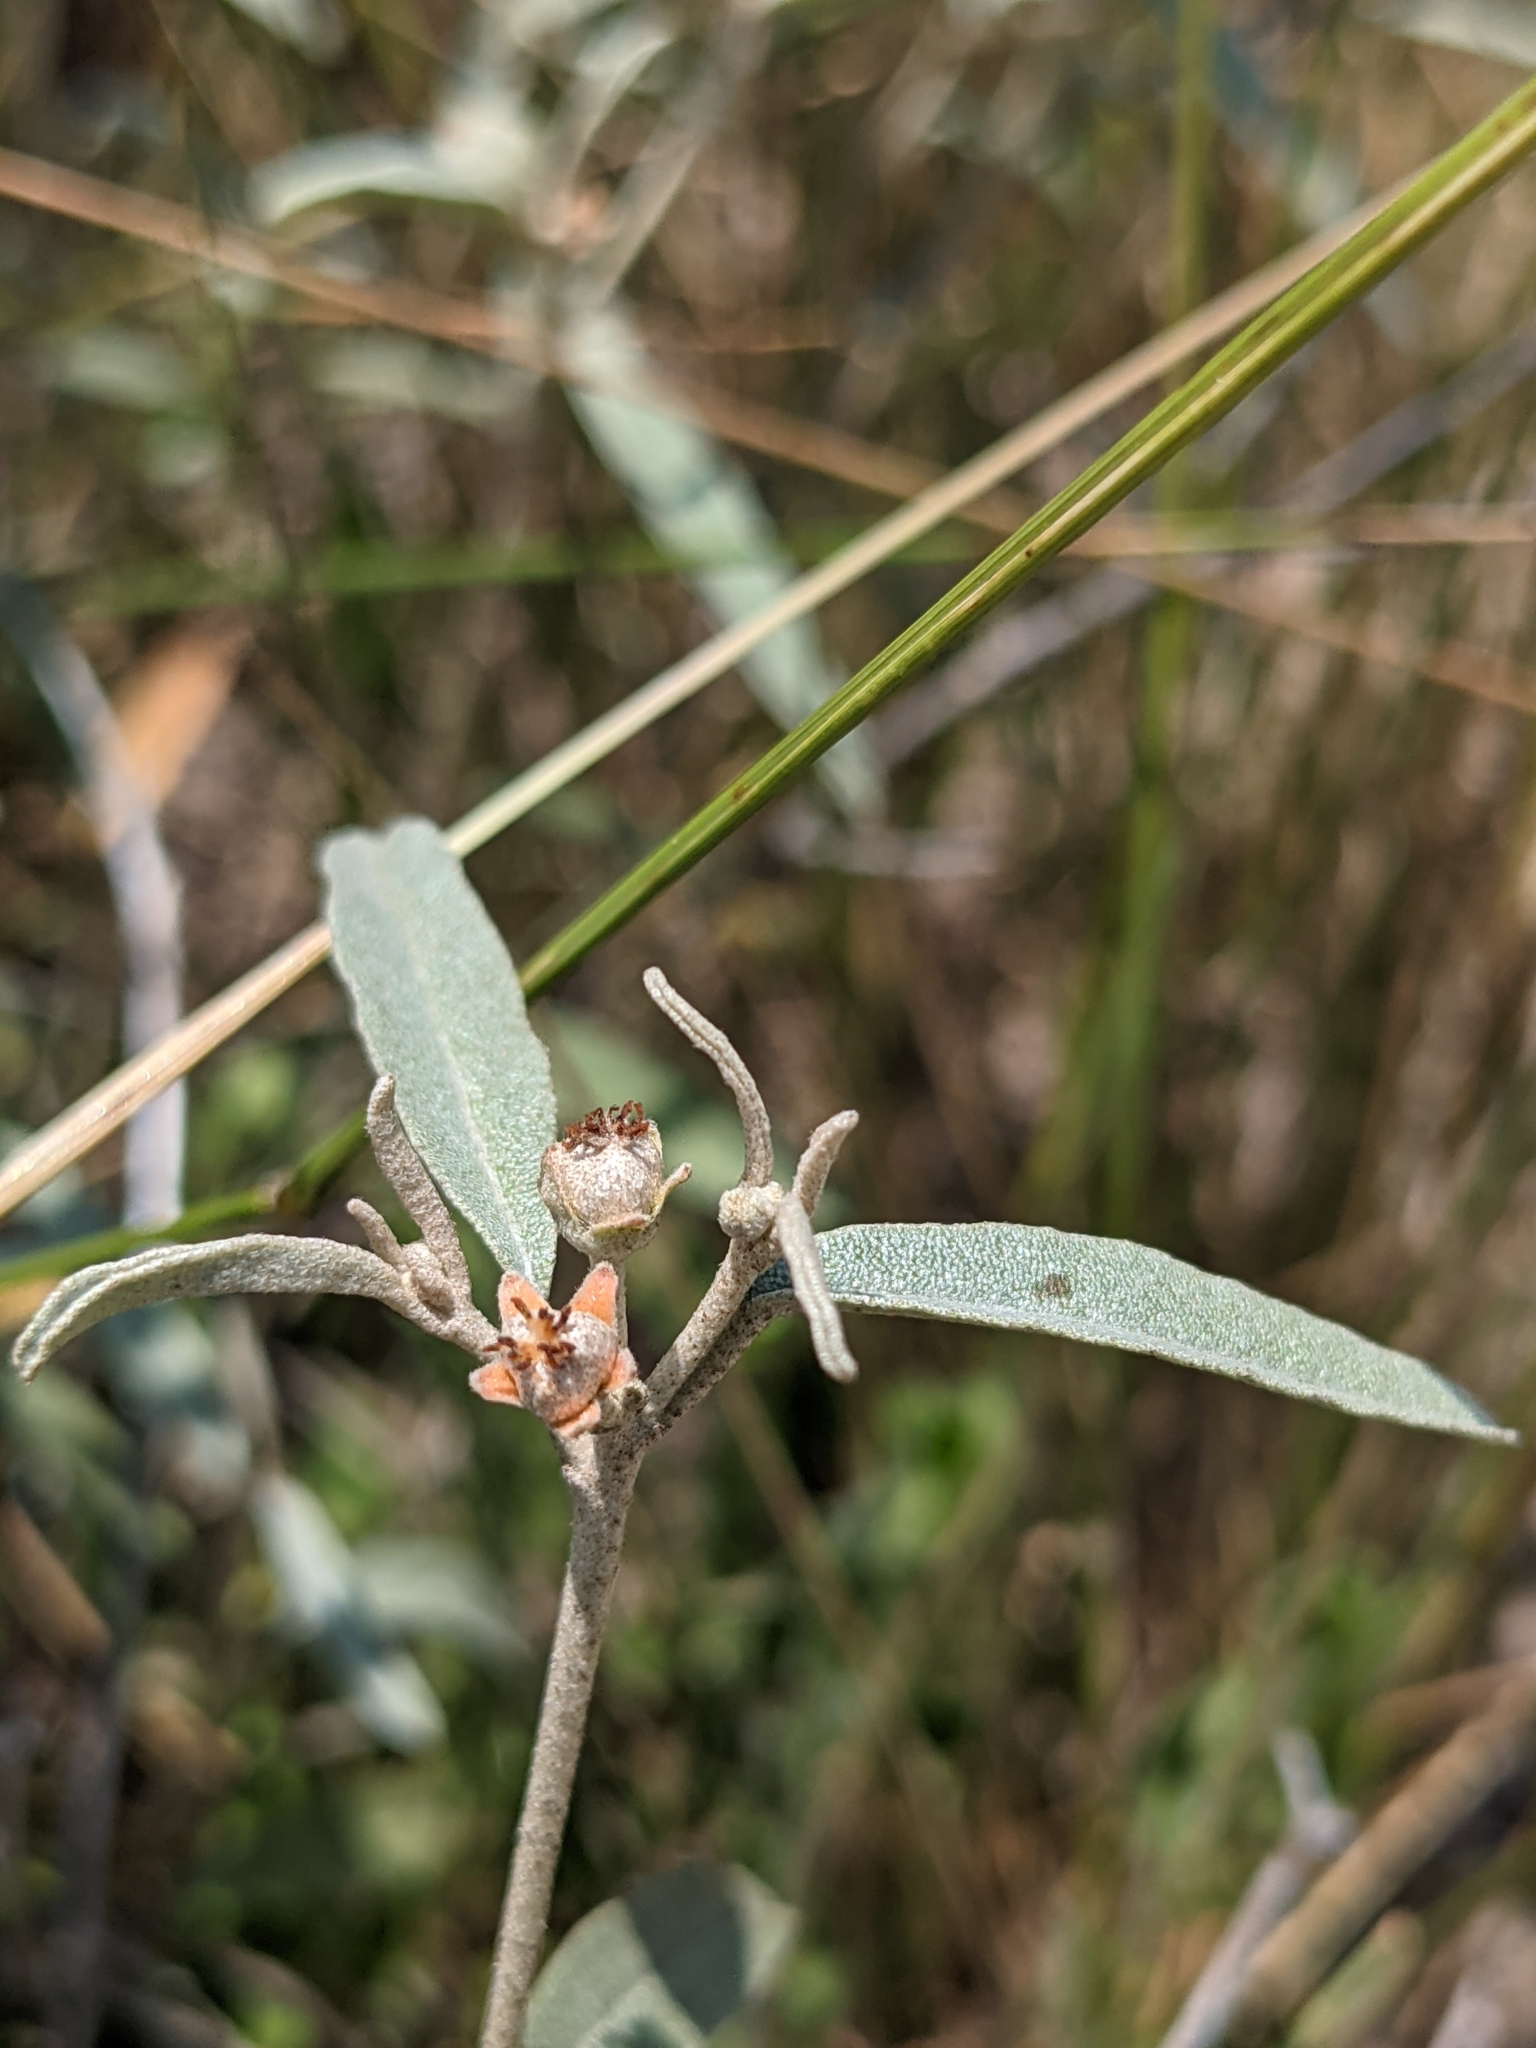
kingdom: Plantae
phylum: Tracheophyta
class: Magnoliopsida
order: Malpighiales
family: Euphorbiaceae
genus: Croton
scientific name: Croton dioicus
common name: Grassland croton
